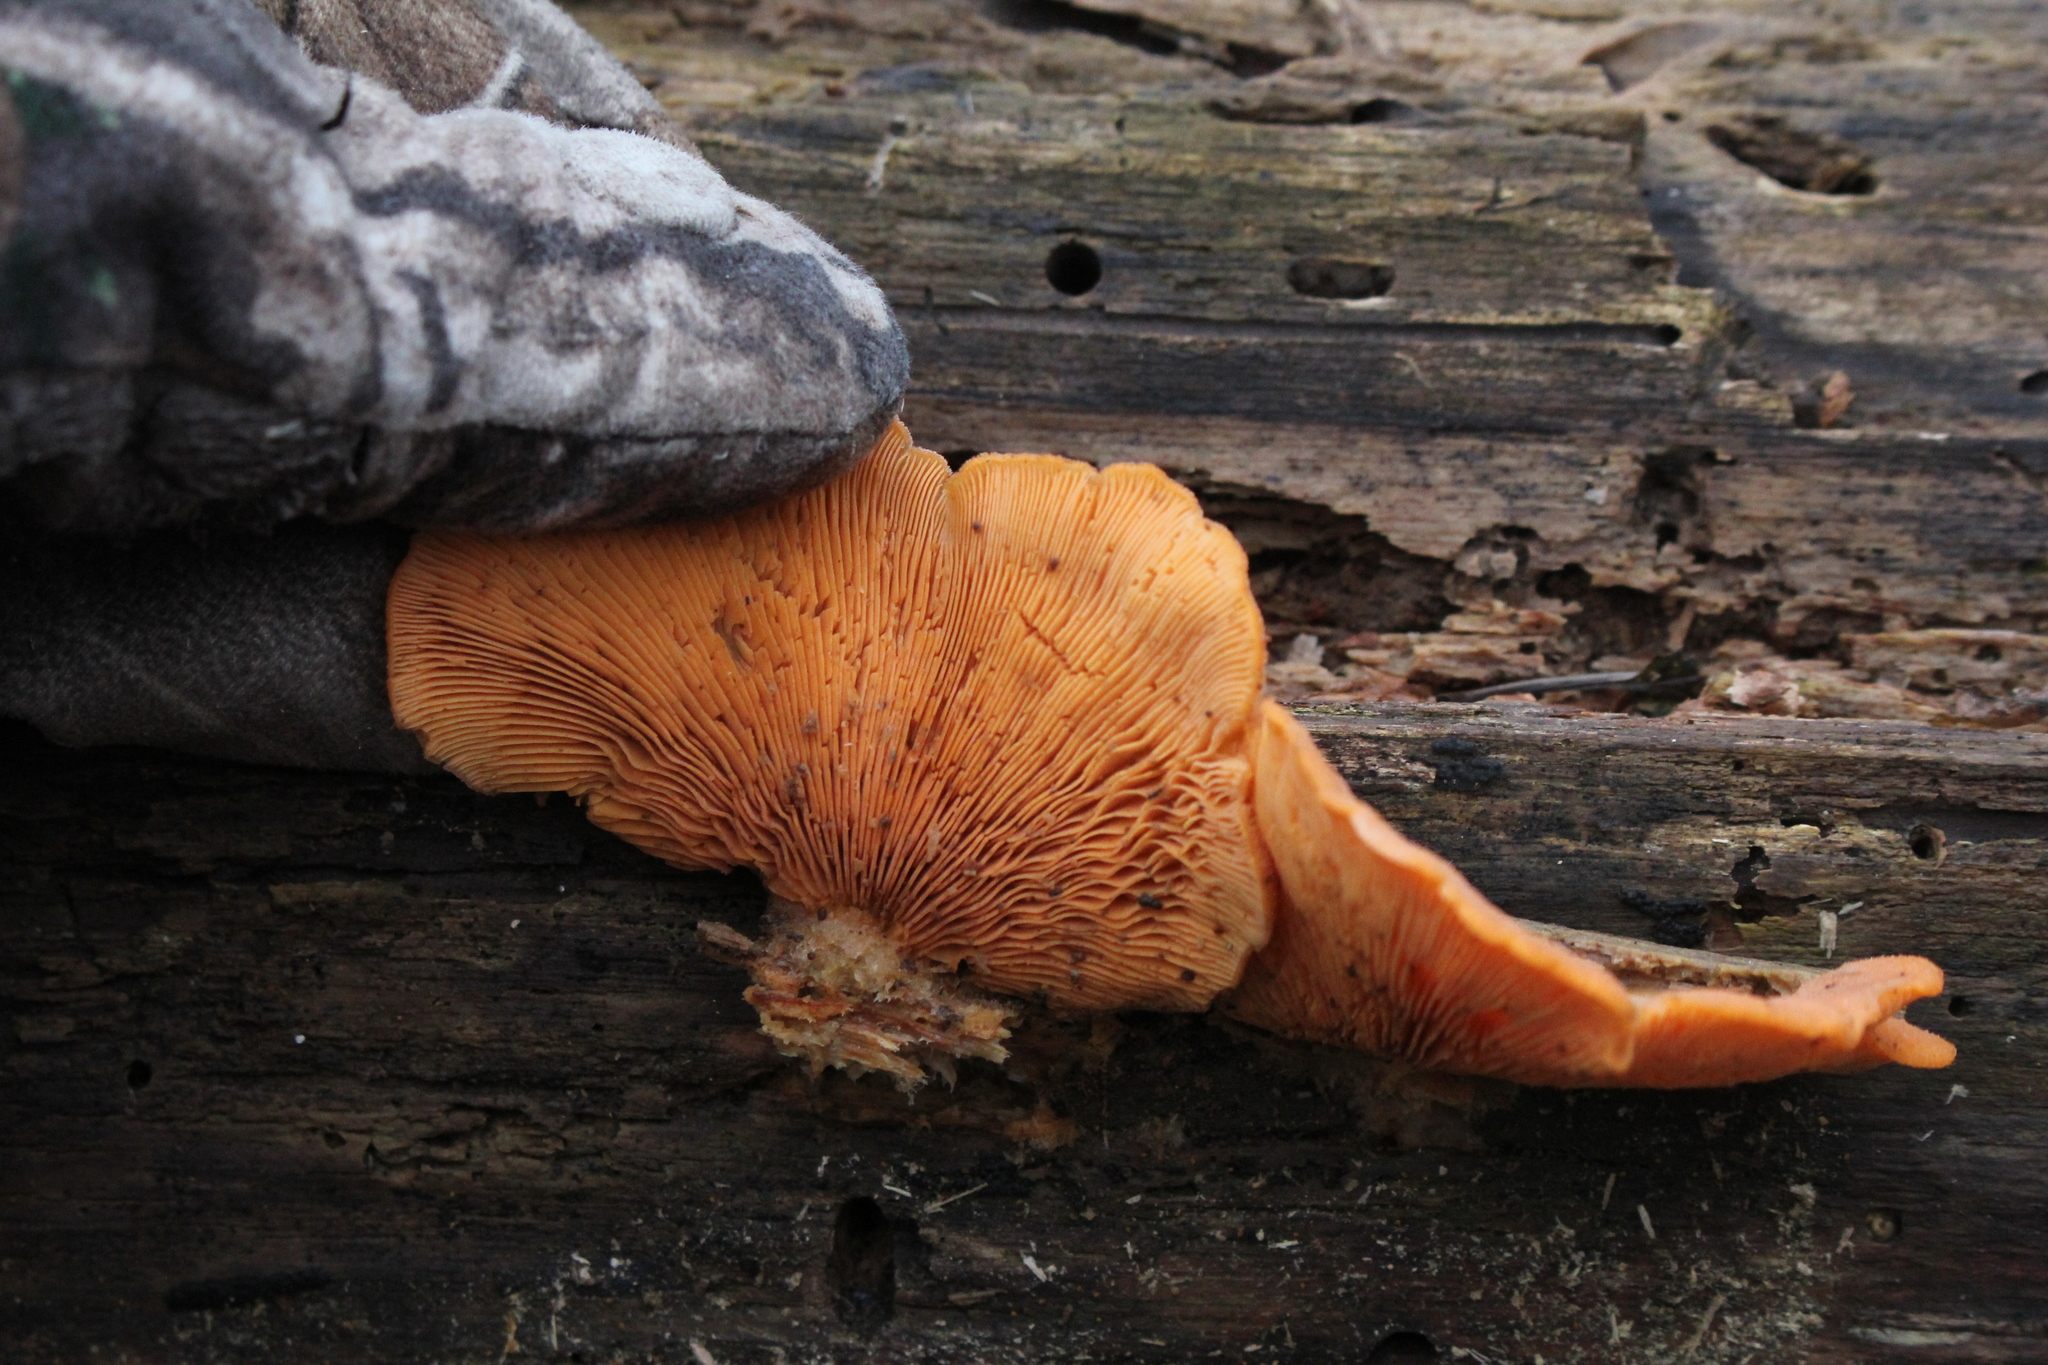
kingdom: Fungi
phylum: Basidiomycota
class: Agaricomycetes
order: Agaricales
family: Phyllotopsidaceae
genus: Phyllotopsis
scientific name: Phyllotopsis nidulans
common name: Orange mock oyster
